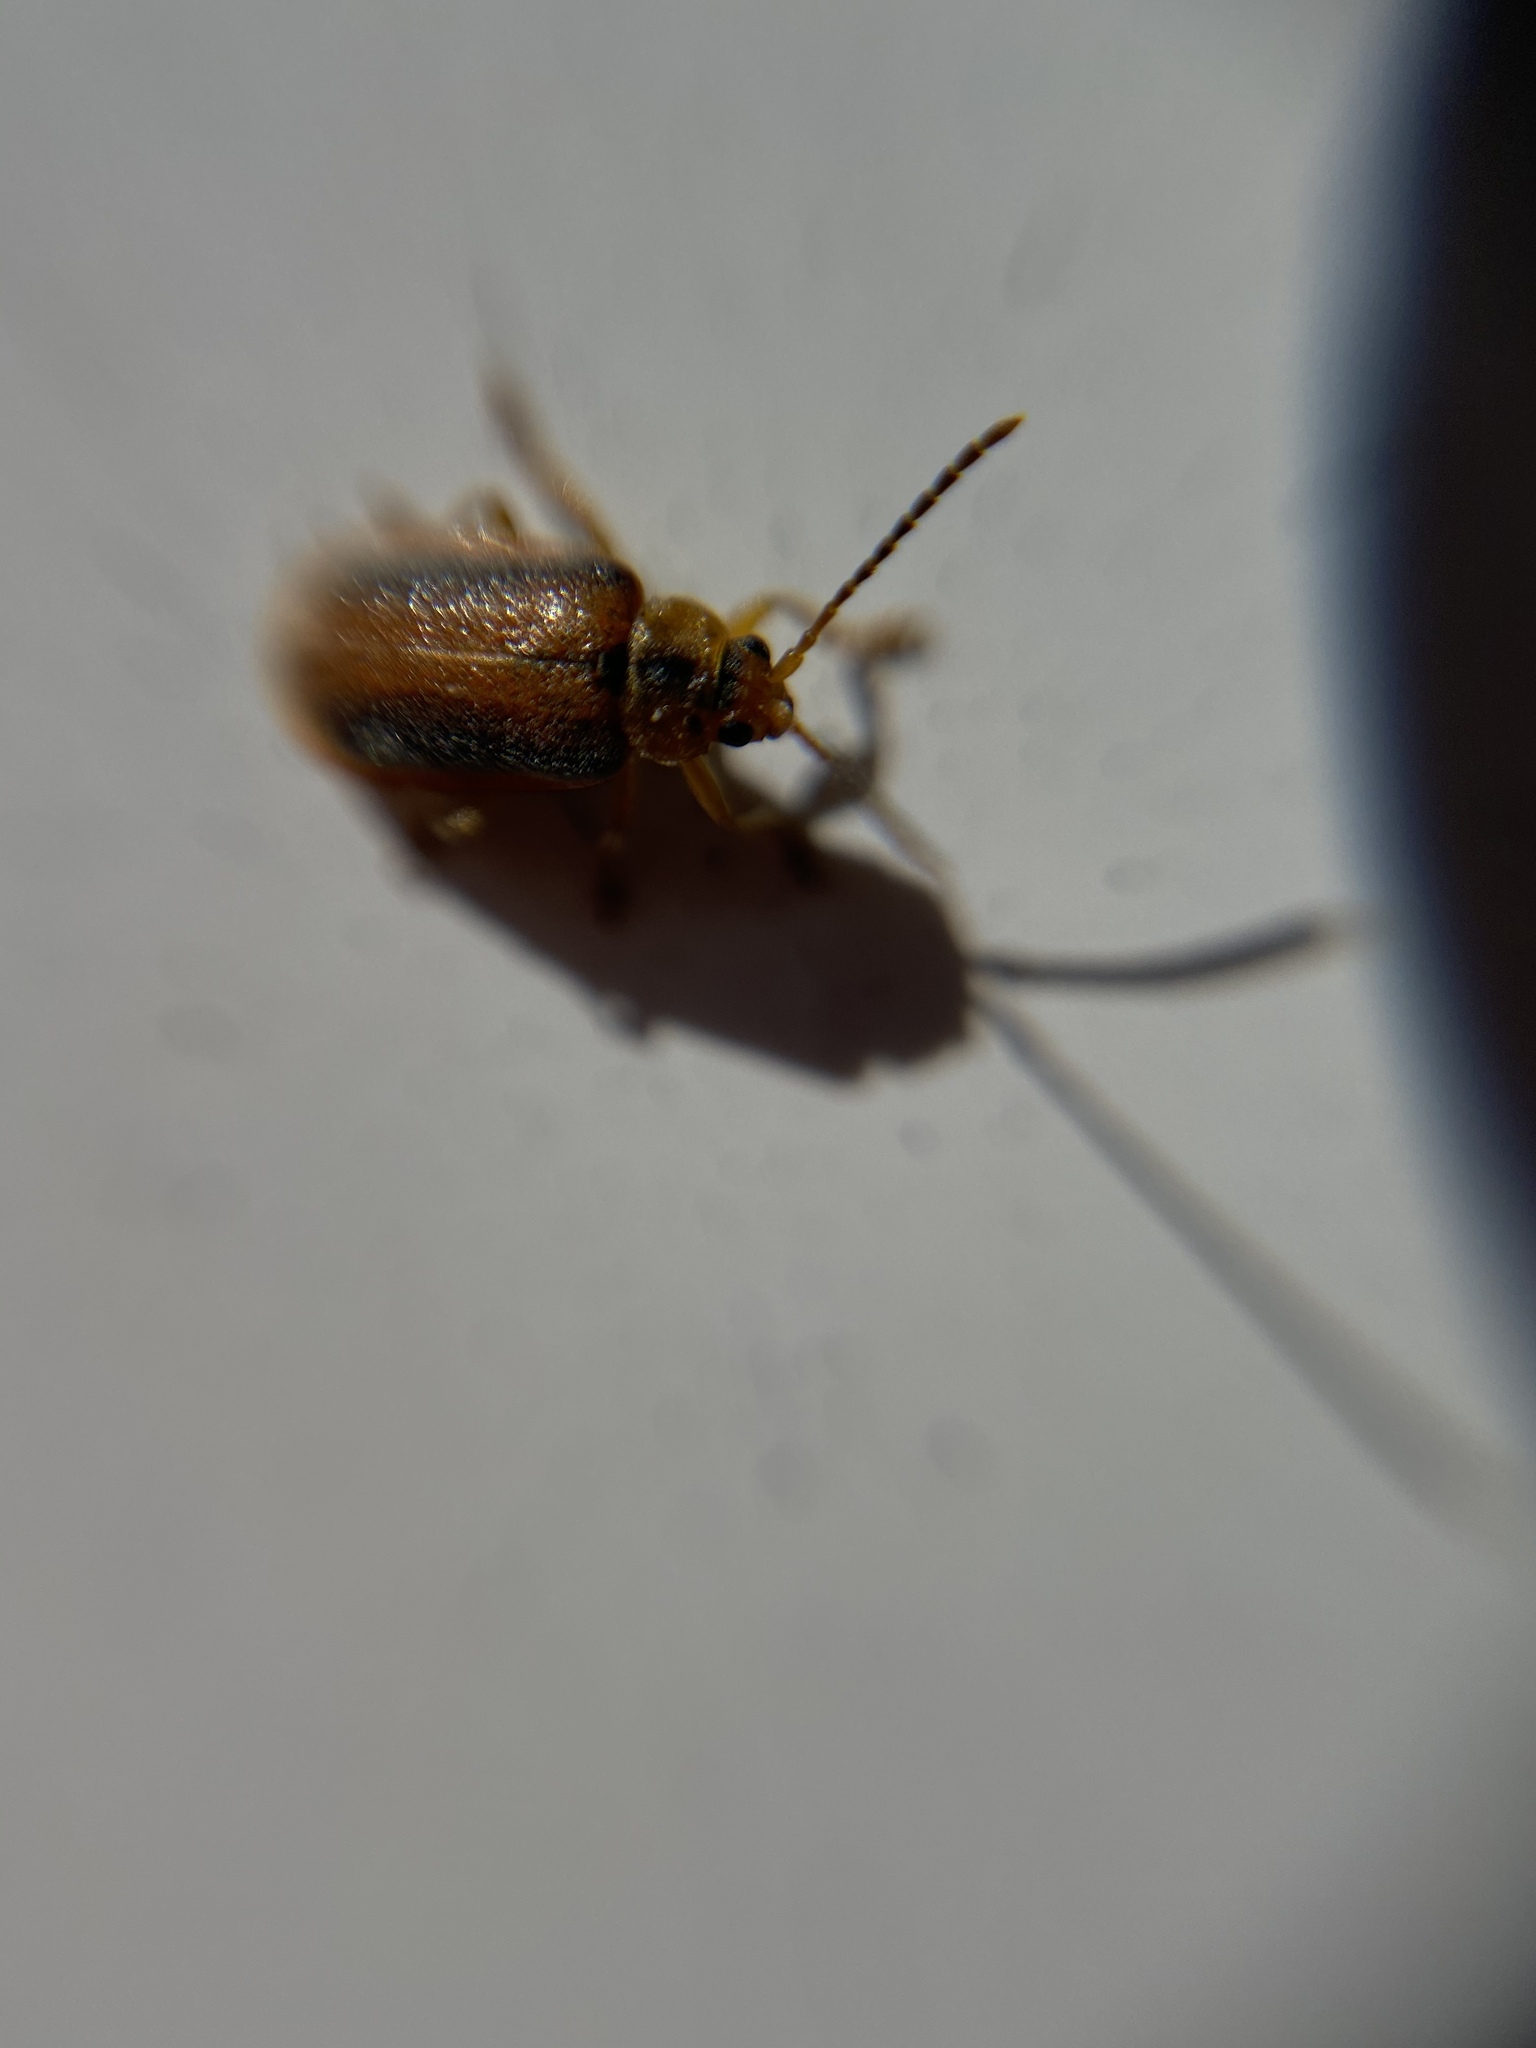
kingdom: Animalia
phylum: Arthropoda
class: Insecta
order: Coleoptera
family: Chrysomelidae
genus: Neogalerucella
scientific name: Neogalerucella calmariensis
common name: Black-margined loosestrife beetle
